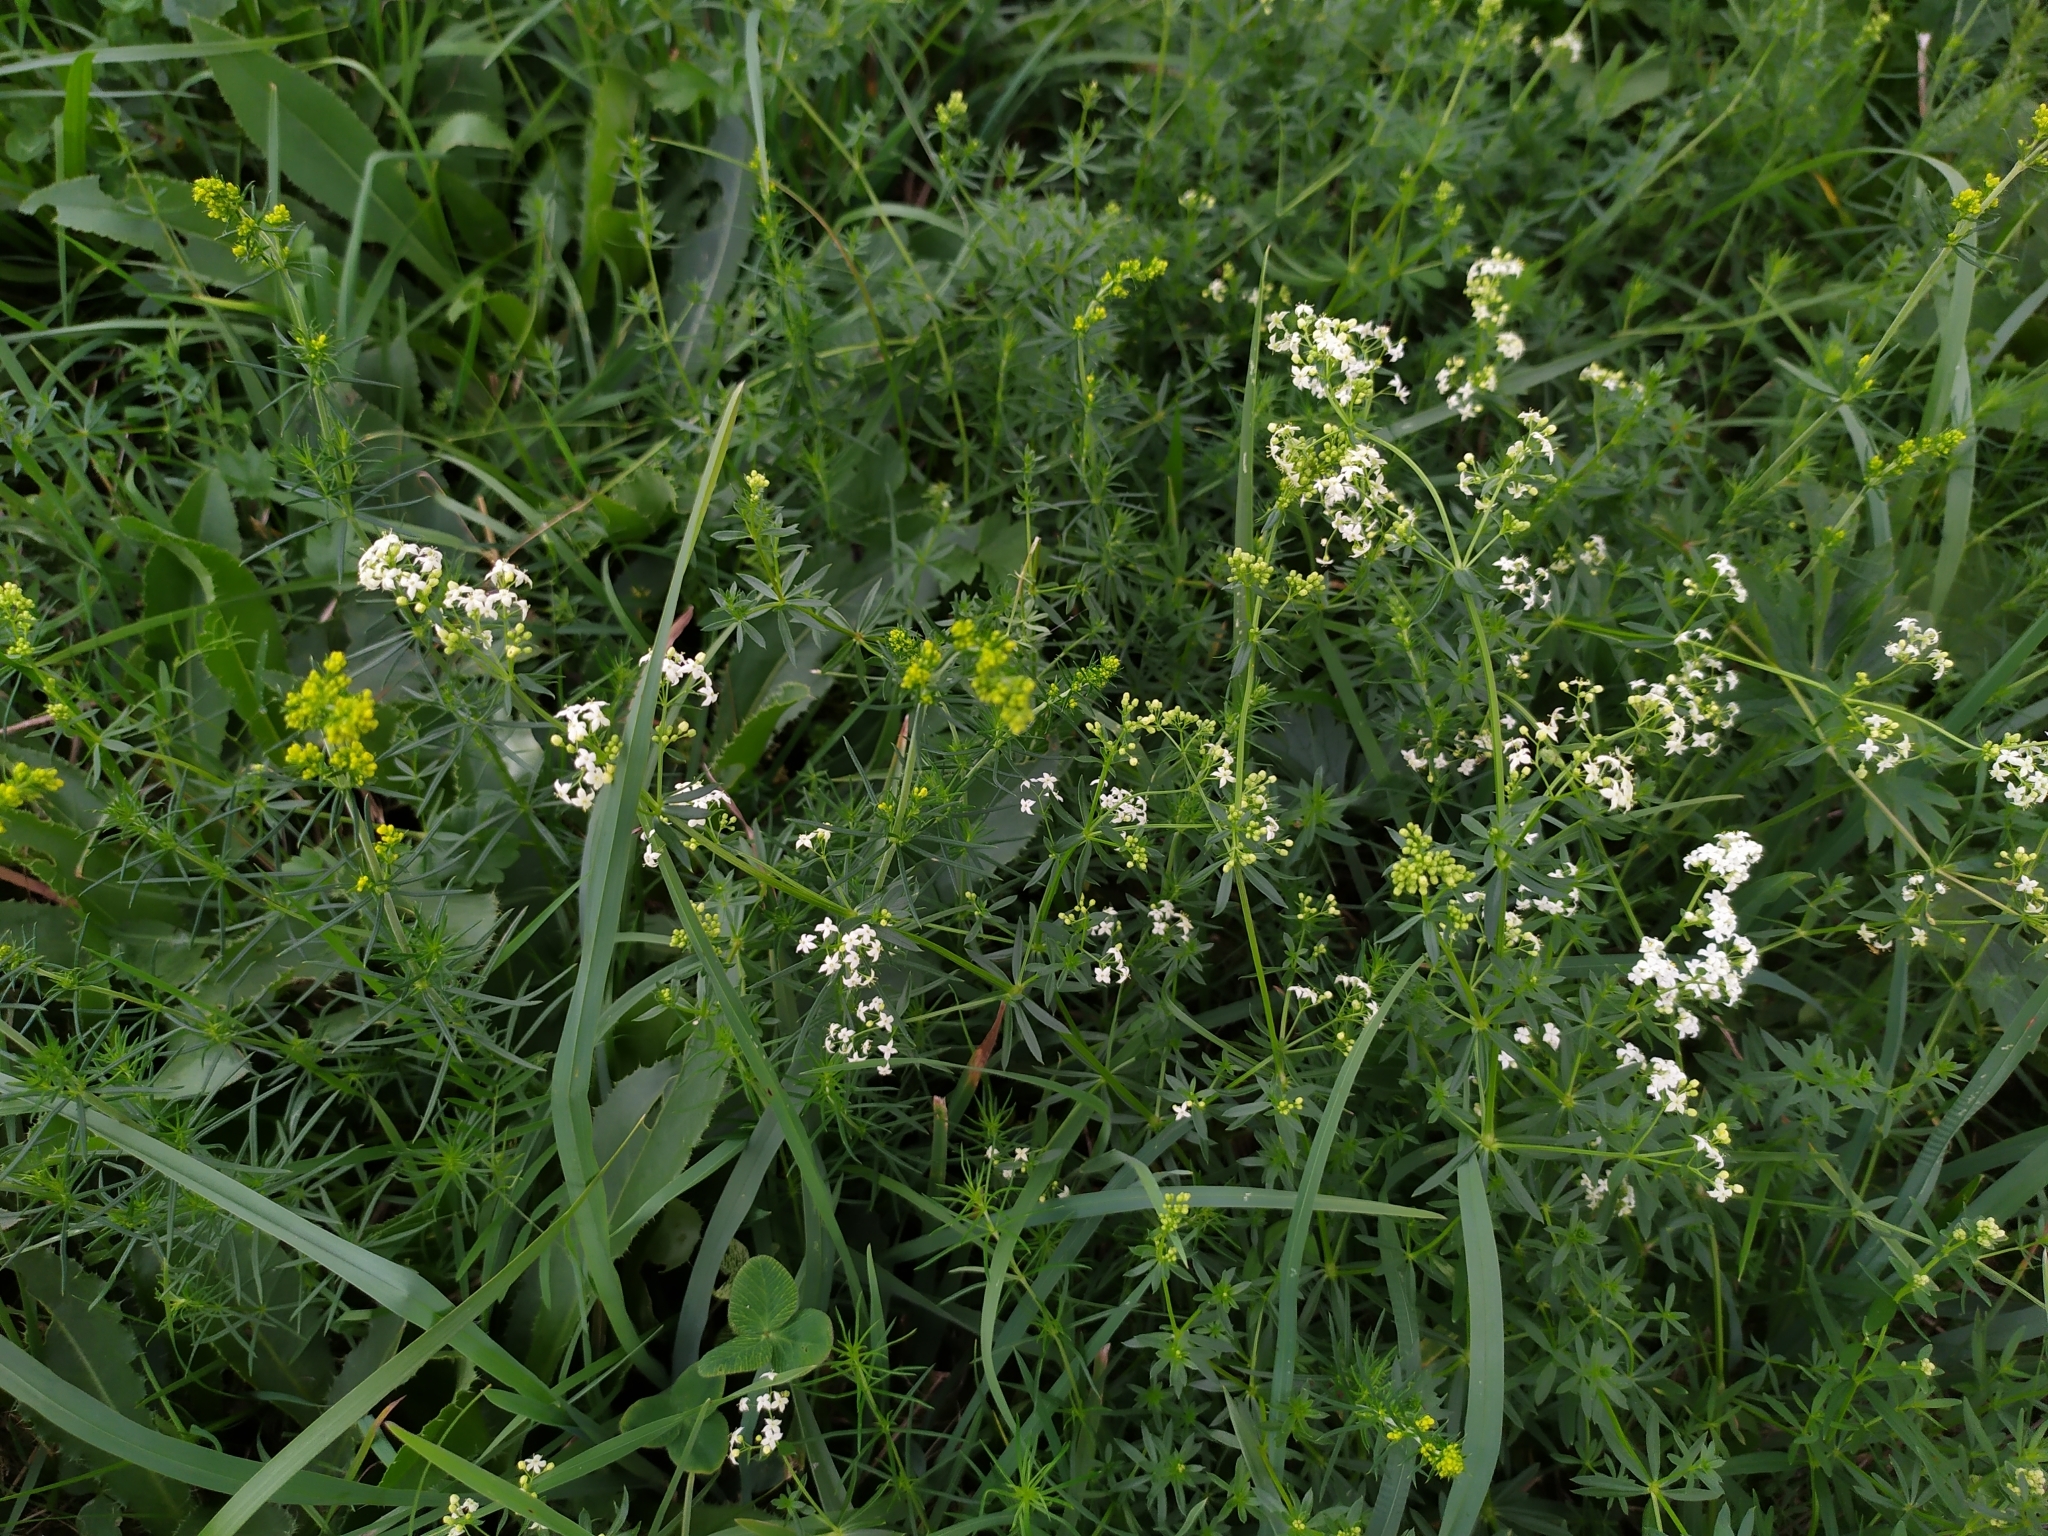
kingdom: Plantae
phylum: Tracheophyta
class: Magnoliopsida
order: Gentianales
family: Rubiaceae
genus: Galium
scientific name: Galium mollugo
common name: Hedge bedstraw
